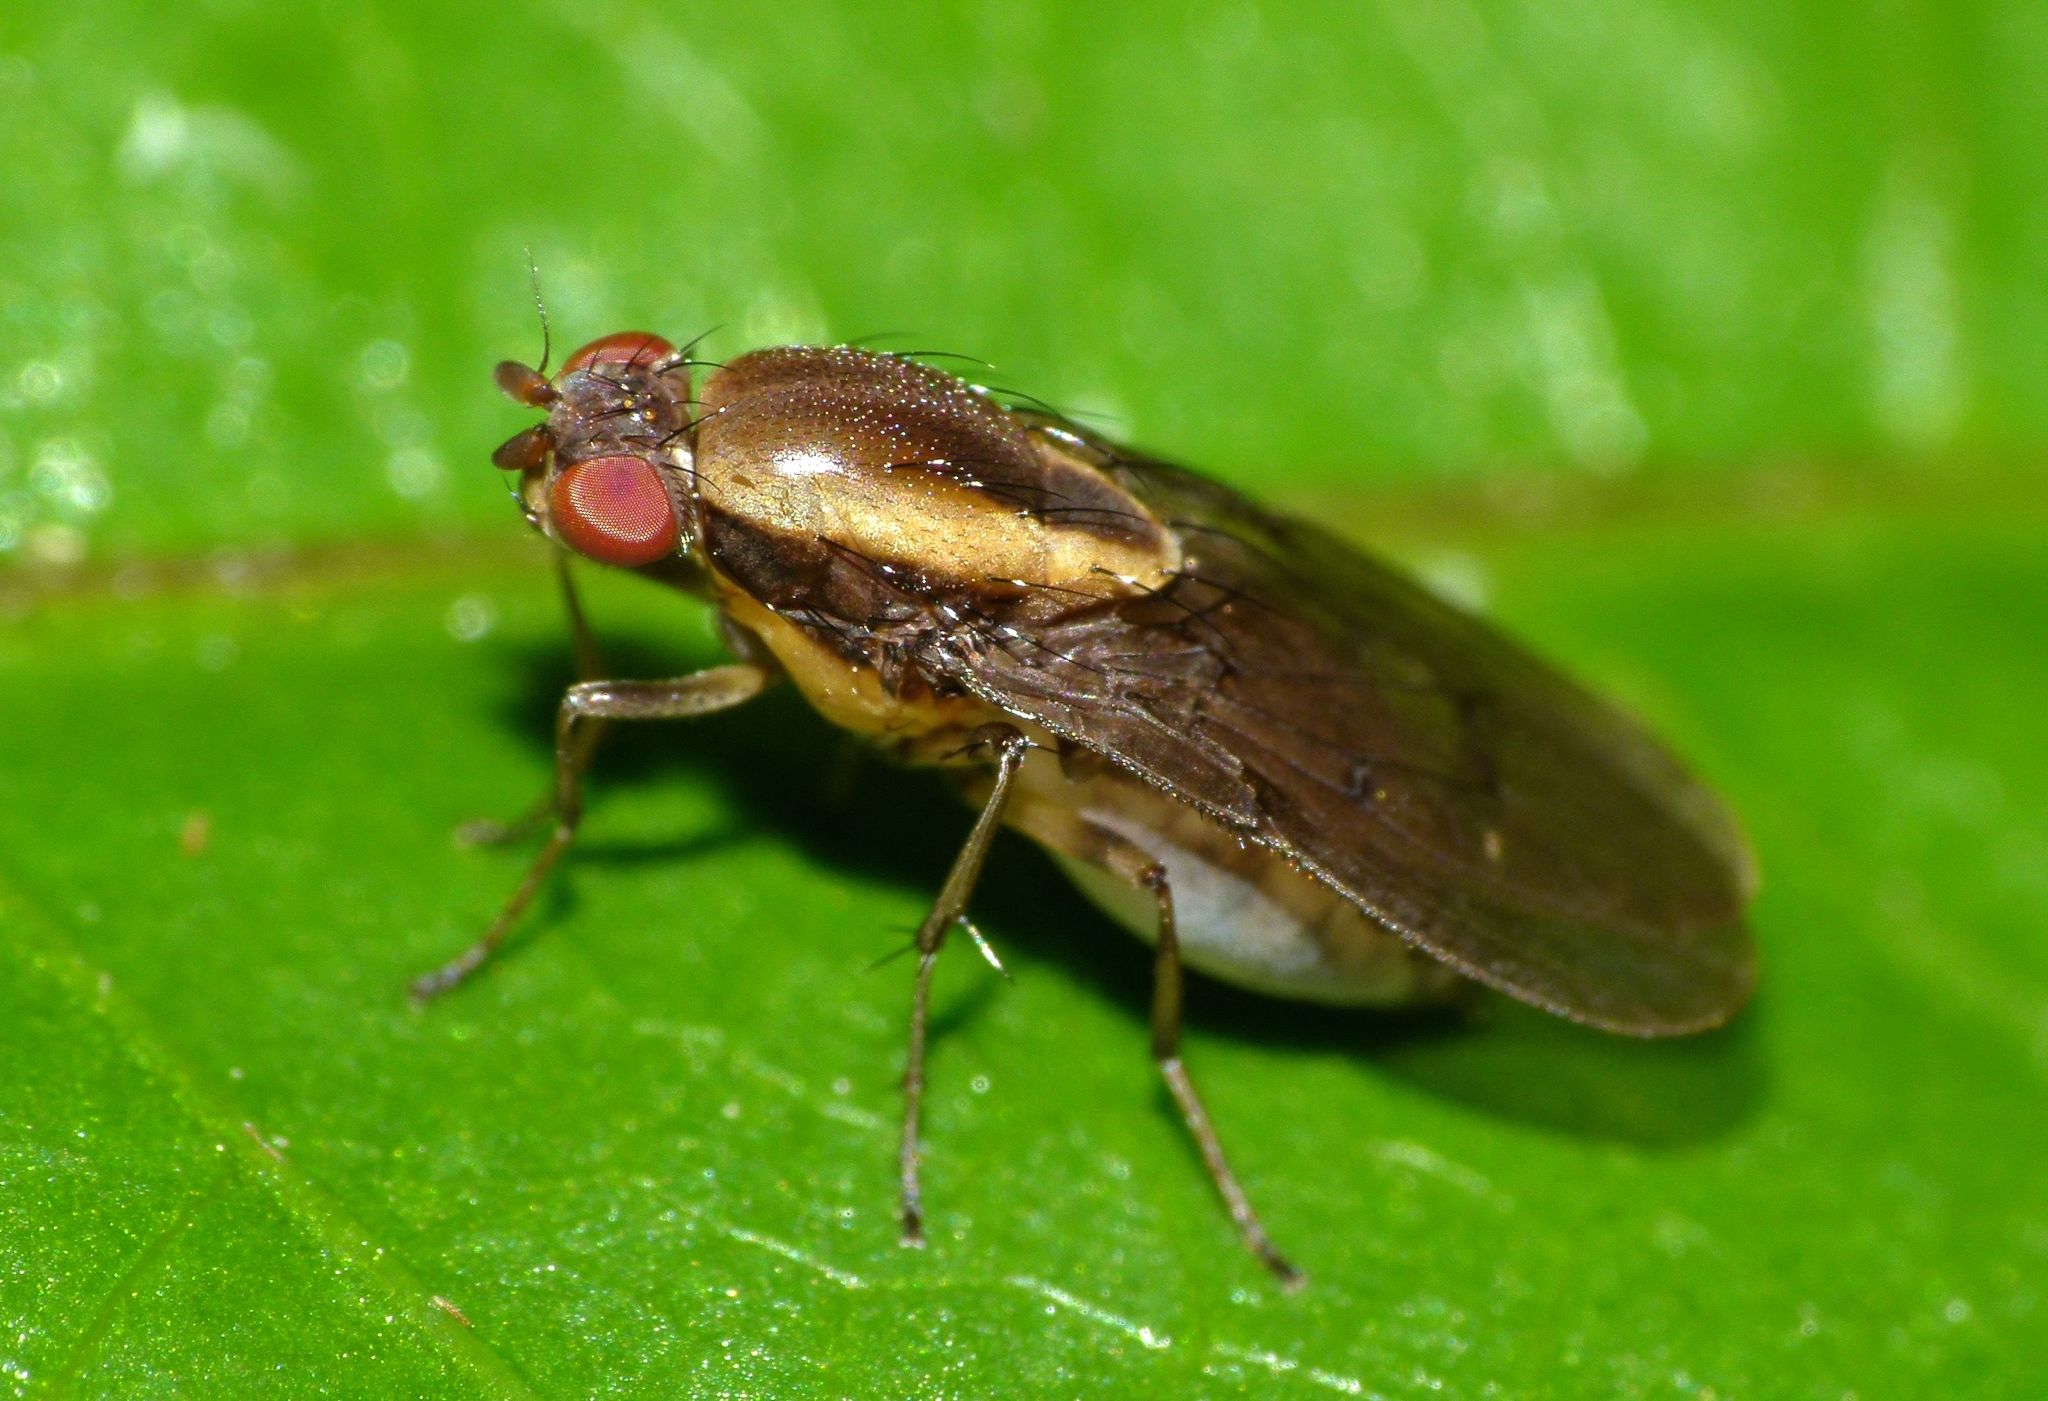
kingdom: Animalia
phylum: Arthropoda
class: Insecta
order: Diptera
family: Heleomyzidae
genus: Allophylopsis
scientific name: Allophylopsis scutellata
